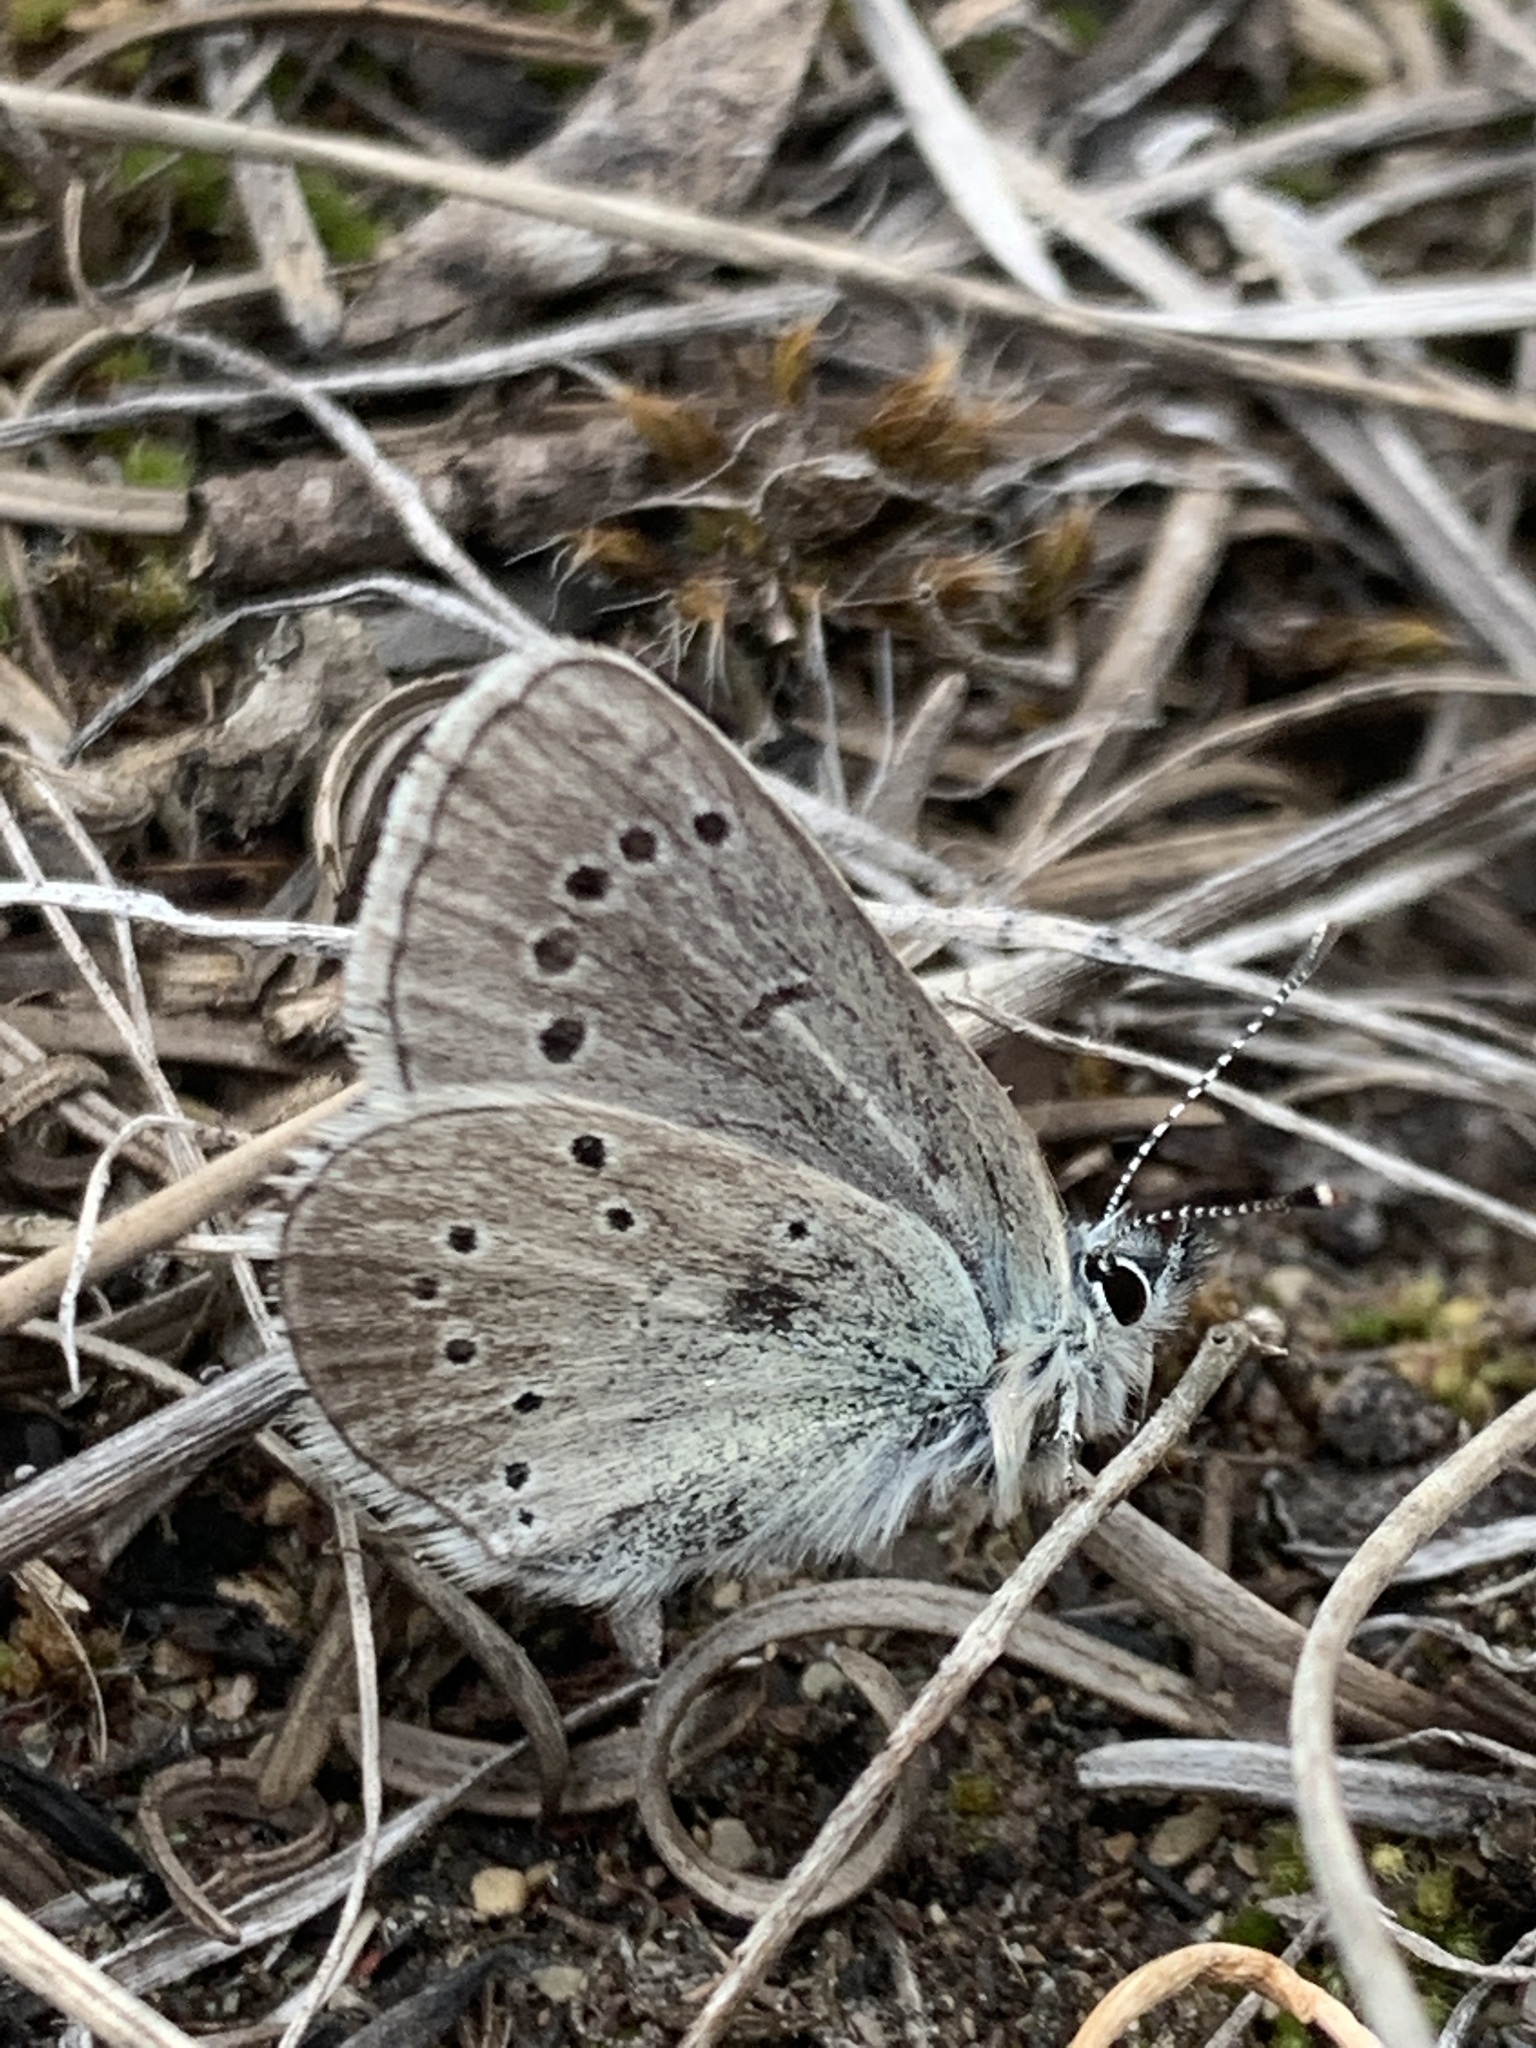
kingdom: Animalia
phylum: Arthropoda
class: Insecta
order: Lepidoptera
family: Lycaenidae
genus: Glaucopsyche
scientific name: Glaucopsyche lygdamus
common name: Silvery blue
